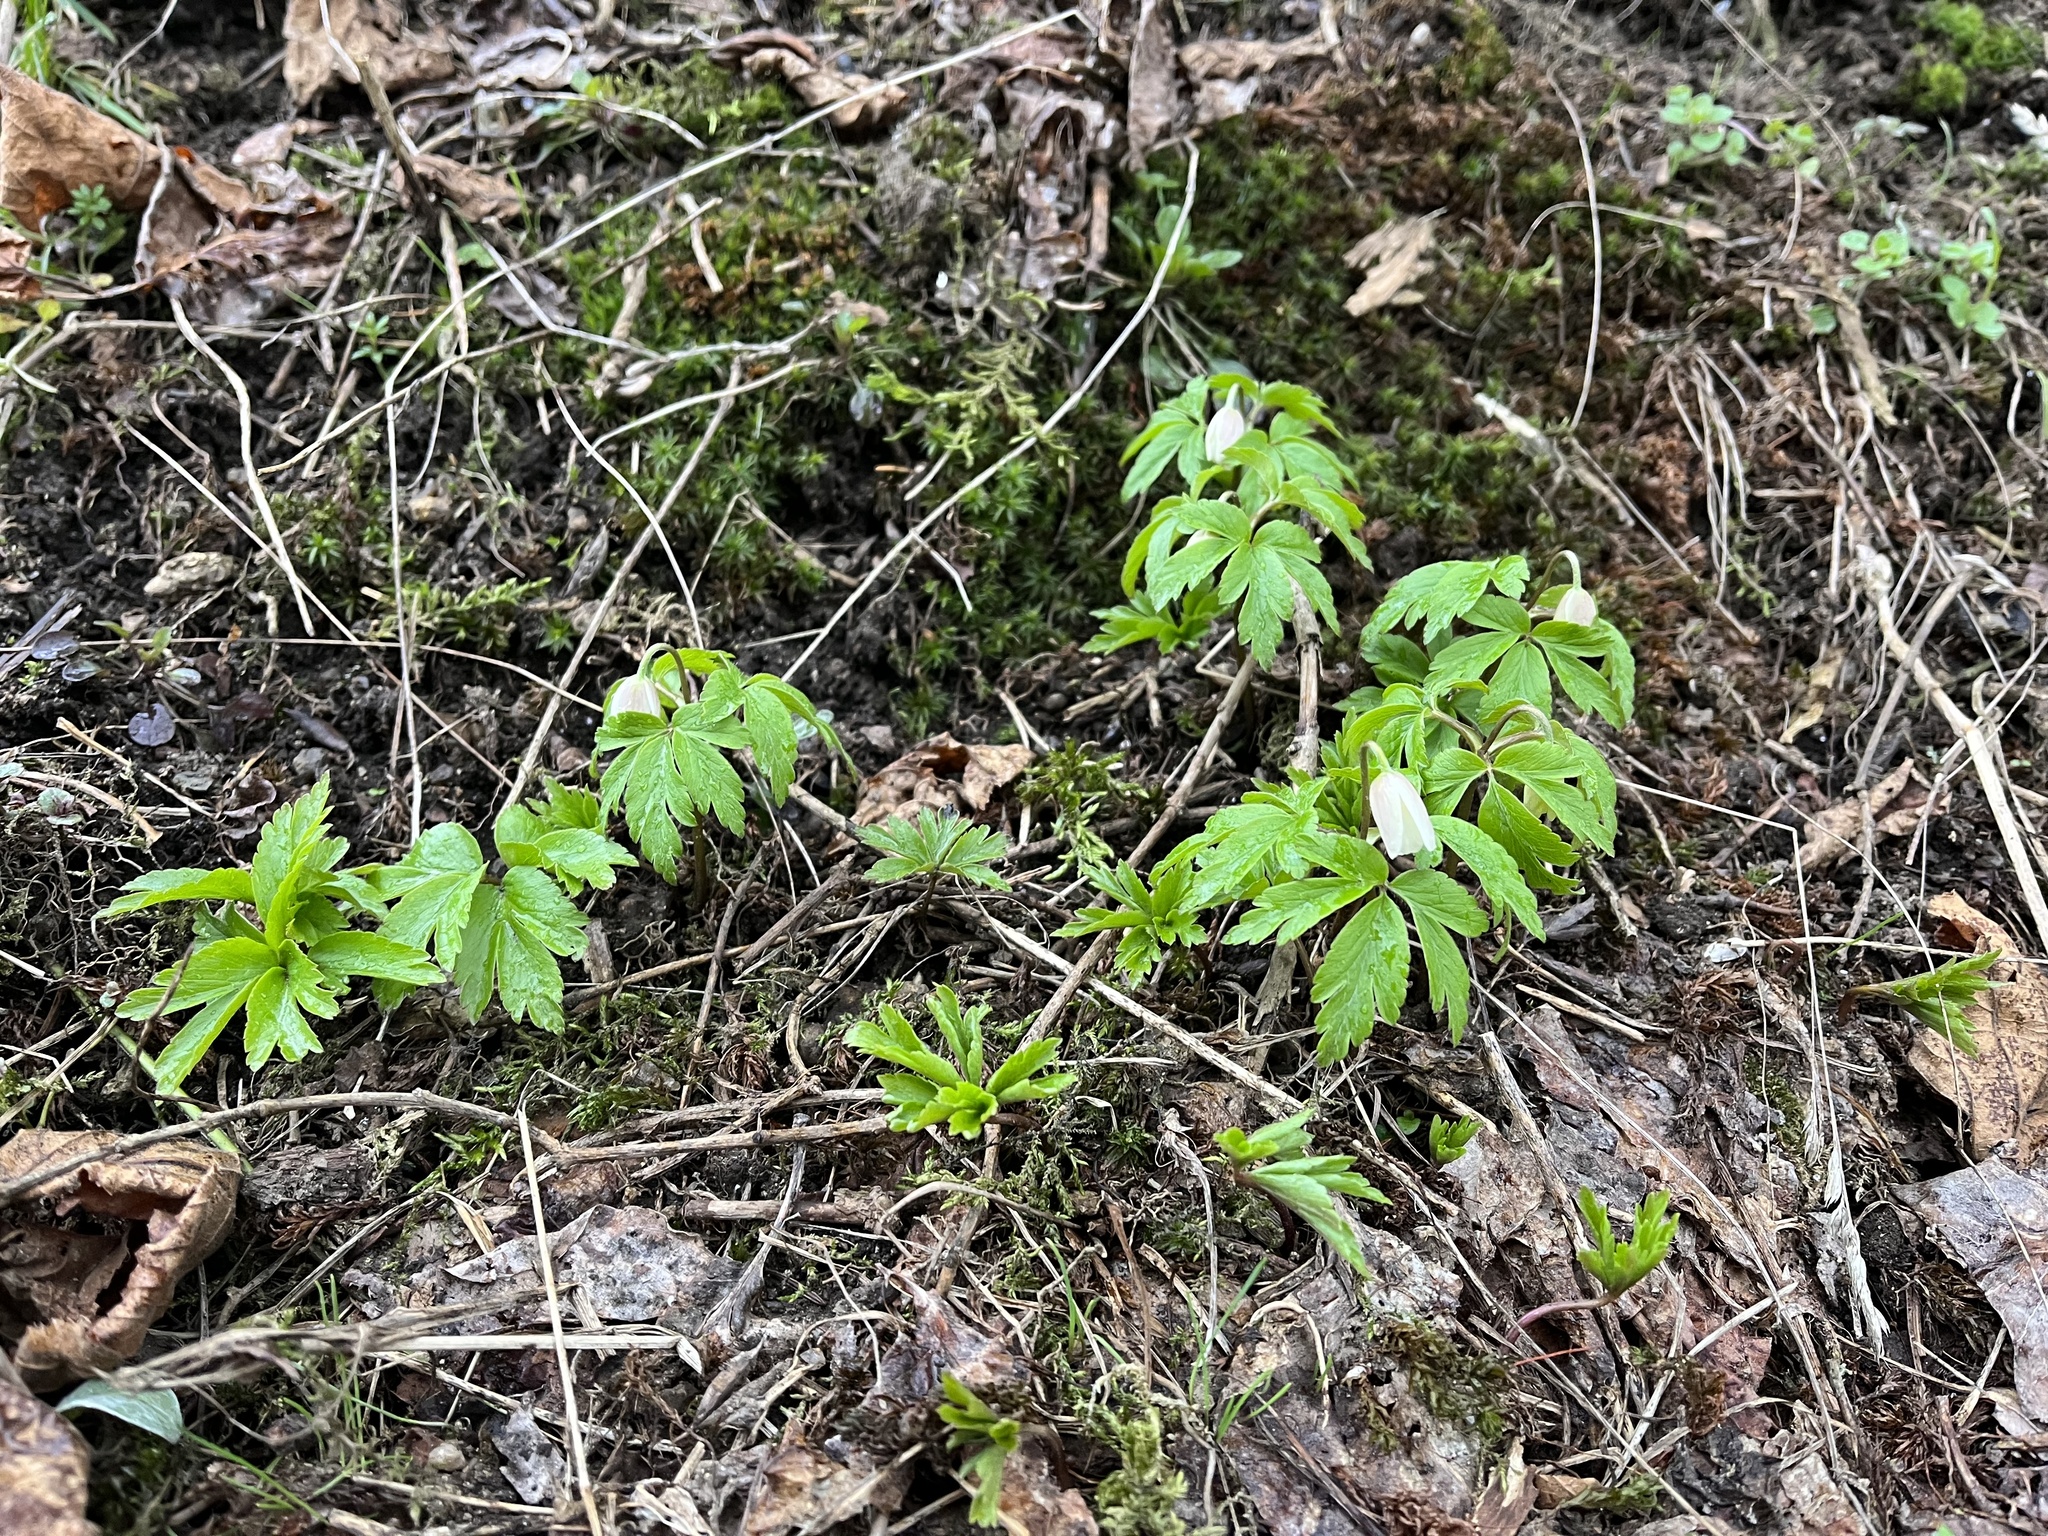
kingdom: Plantae
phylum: Tracheophyta
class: Magnoliopsida
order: Ranunculales
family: Ranunculaceae
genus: Anemone
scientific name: Anemone nemorosa
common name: Wood anemone
